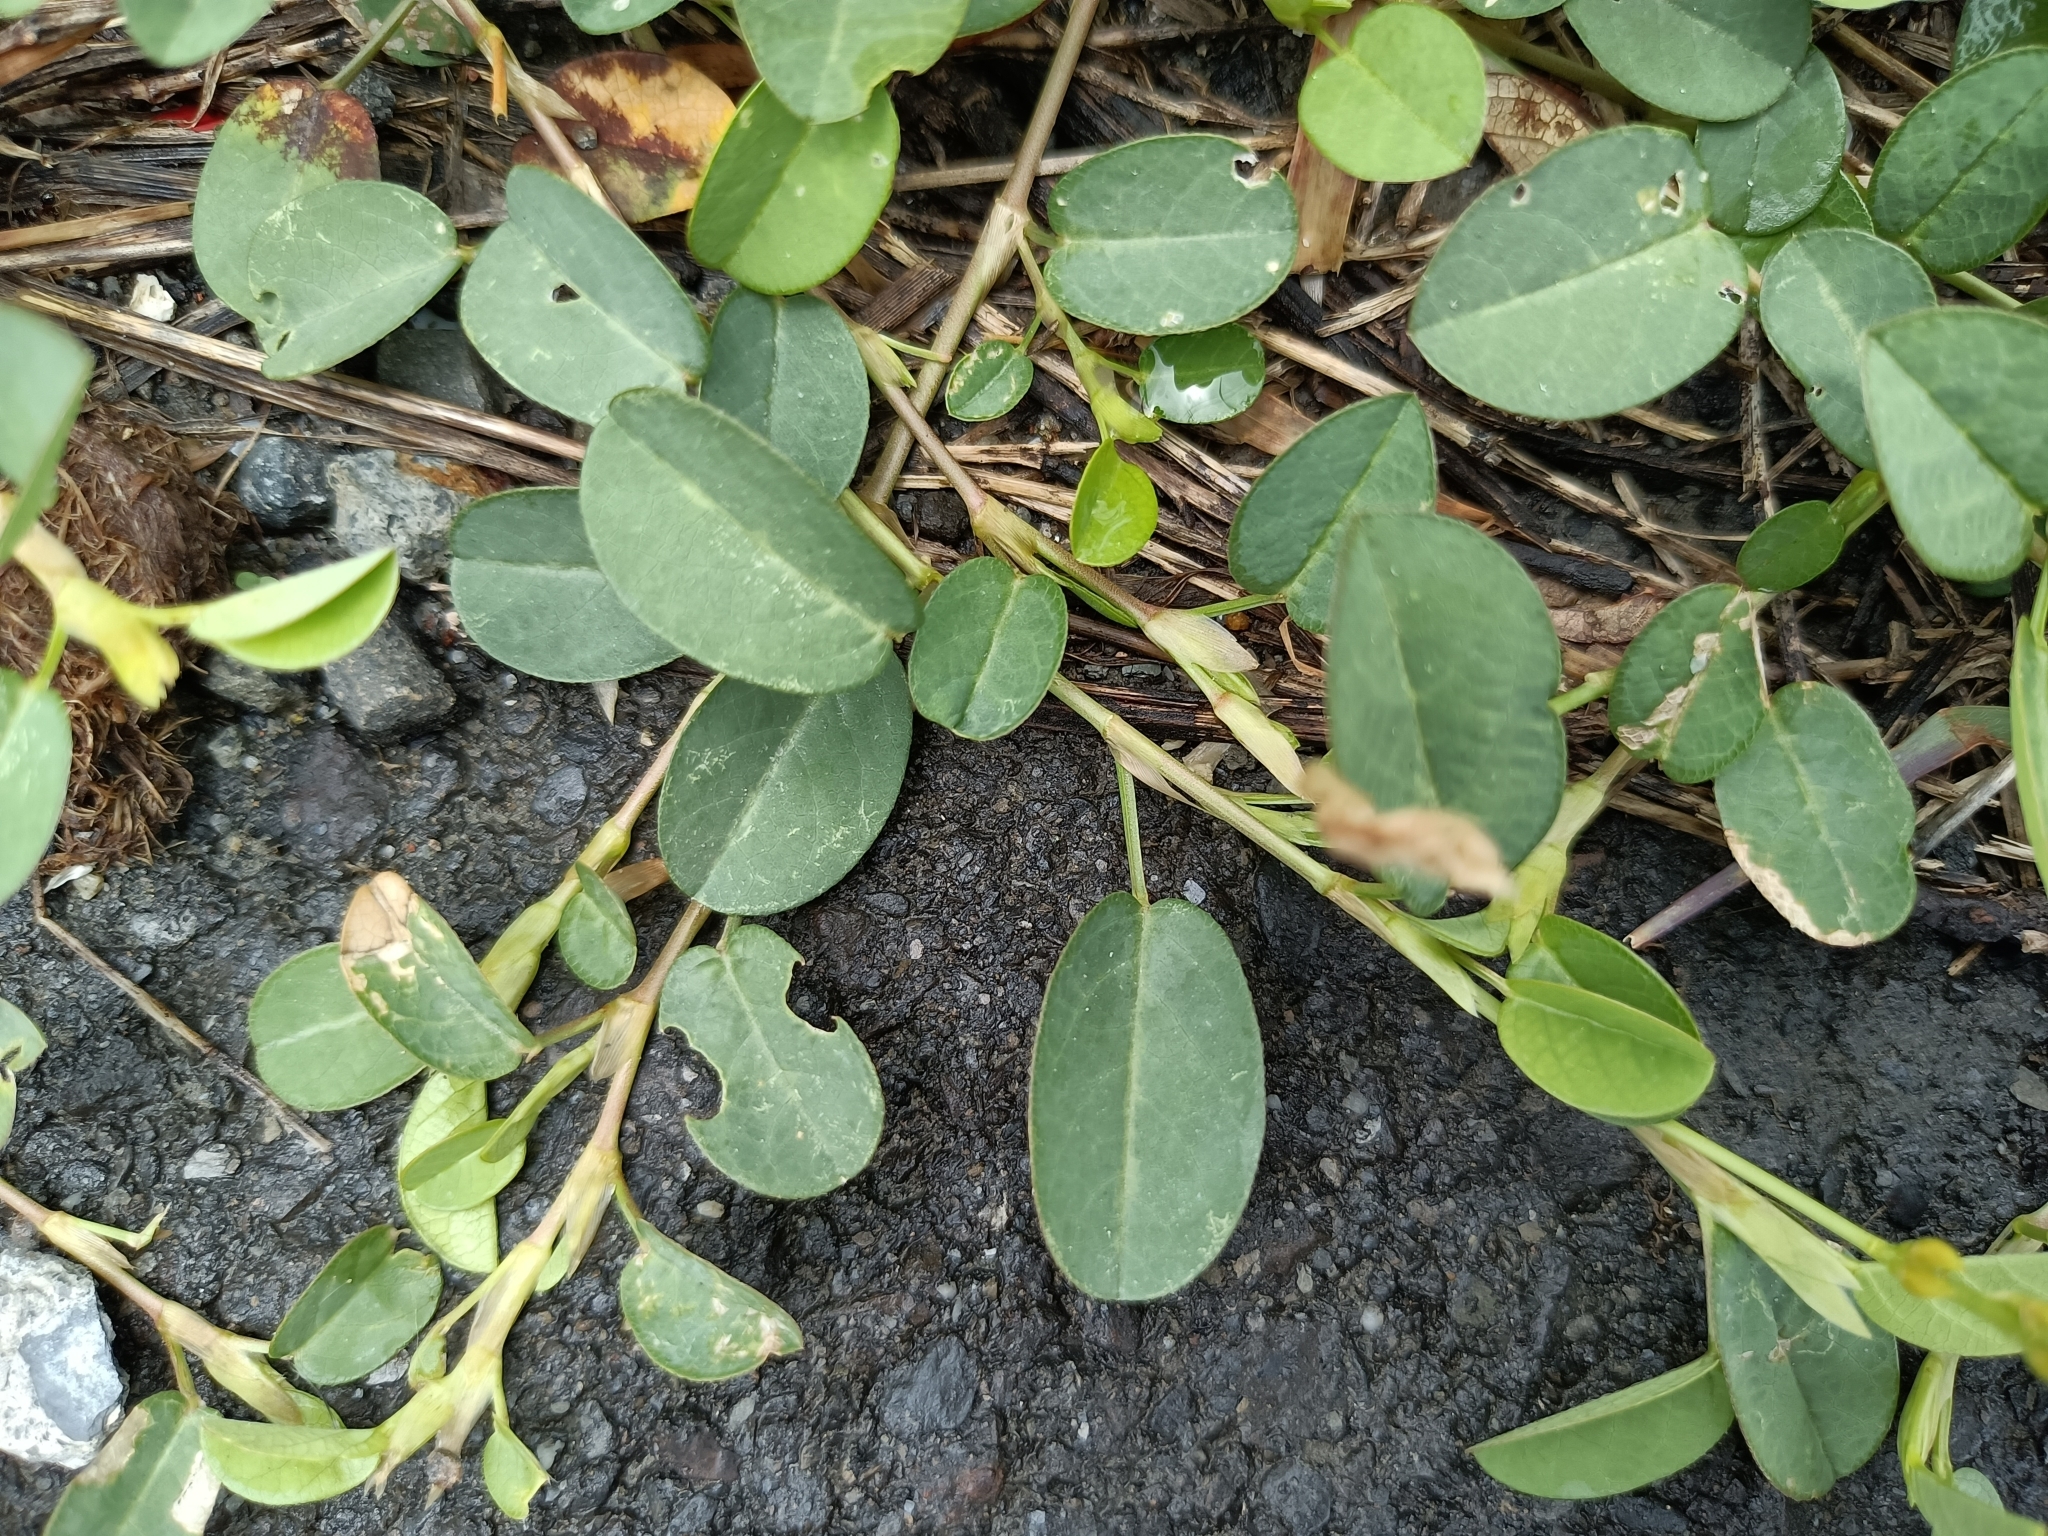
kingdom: Plantae
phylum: Tracheophyta
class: Magnoliopsida
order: Fabales
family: Fabaceae
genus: Alysicarpus
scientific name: Alysicarpus vaginalis
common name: White moneywort
